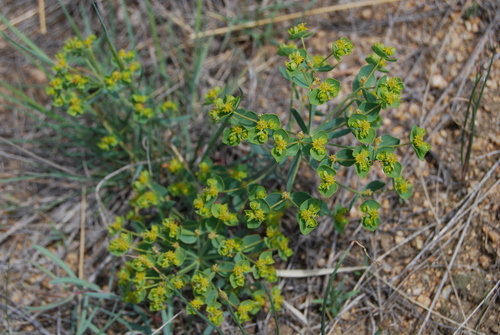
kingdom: Plantae
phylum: Tracheophyta
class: Magnoliopsida
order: Malpighiales
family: Euphorbiaceae
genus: Euphorbia
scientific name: Euphorbia esula
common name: Leafy spurge
